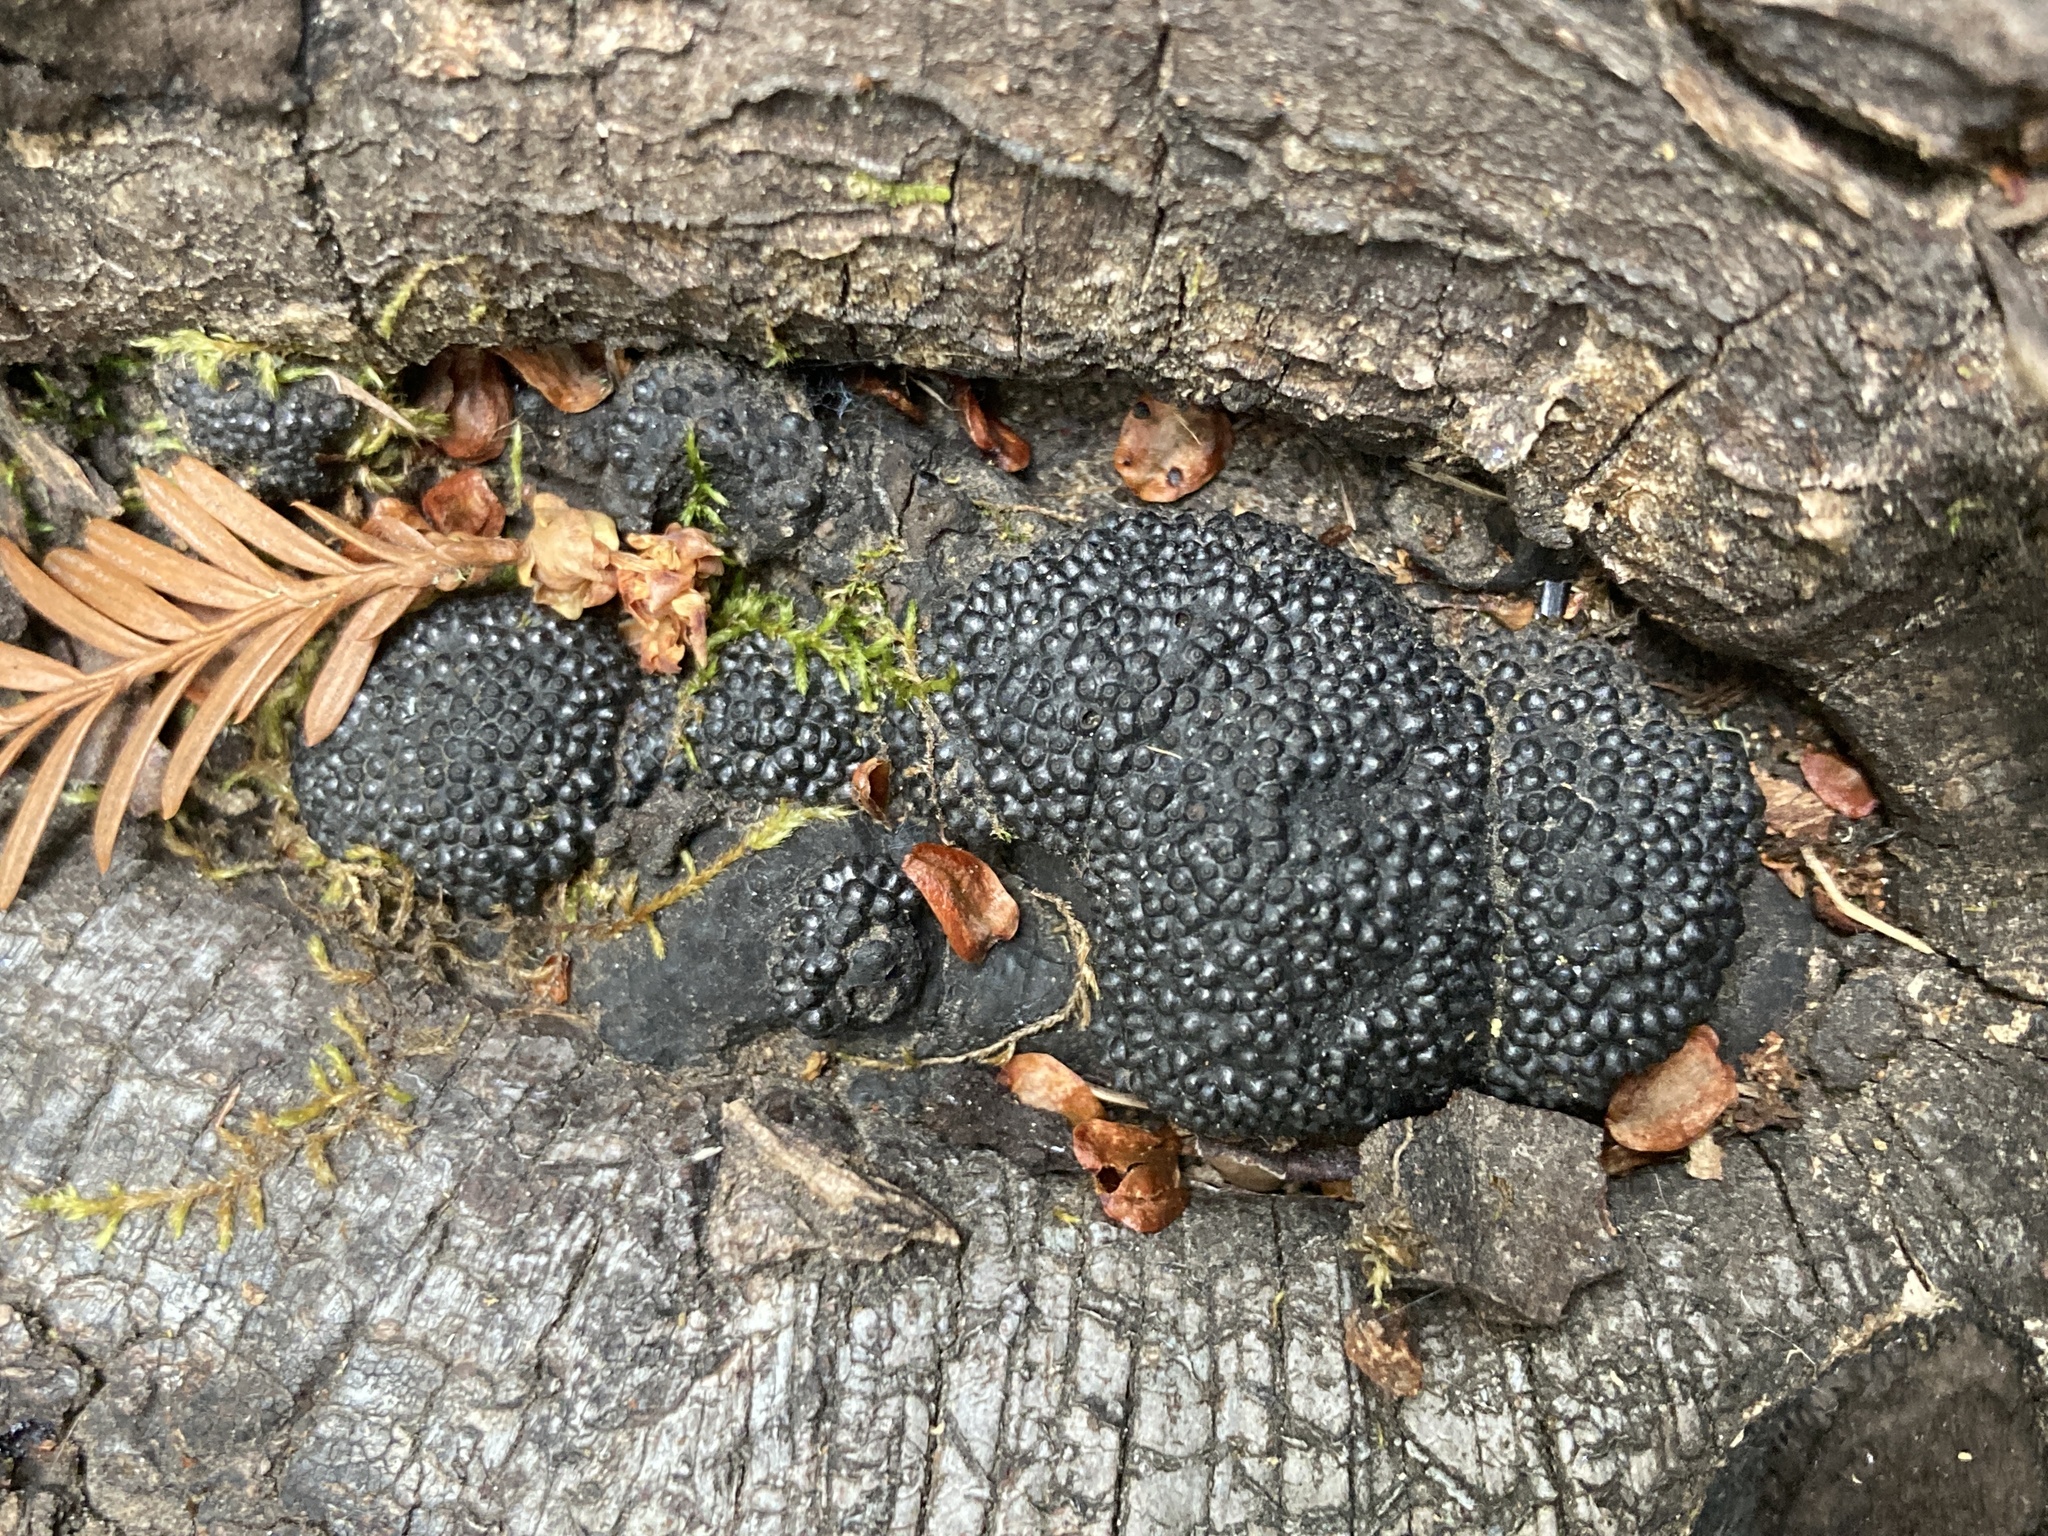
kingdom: Fungi
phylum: Ascomycota
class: Sordariomycetes
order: Xylariales
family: Hypoxylaceae
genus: Annulohypoxylon
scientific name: Annulohypoxylon thouarsianum
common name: Cramp balls
